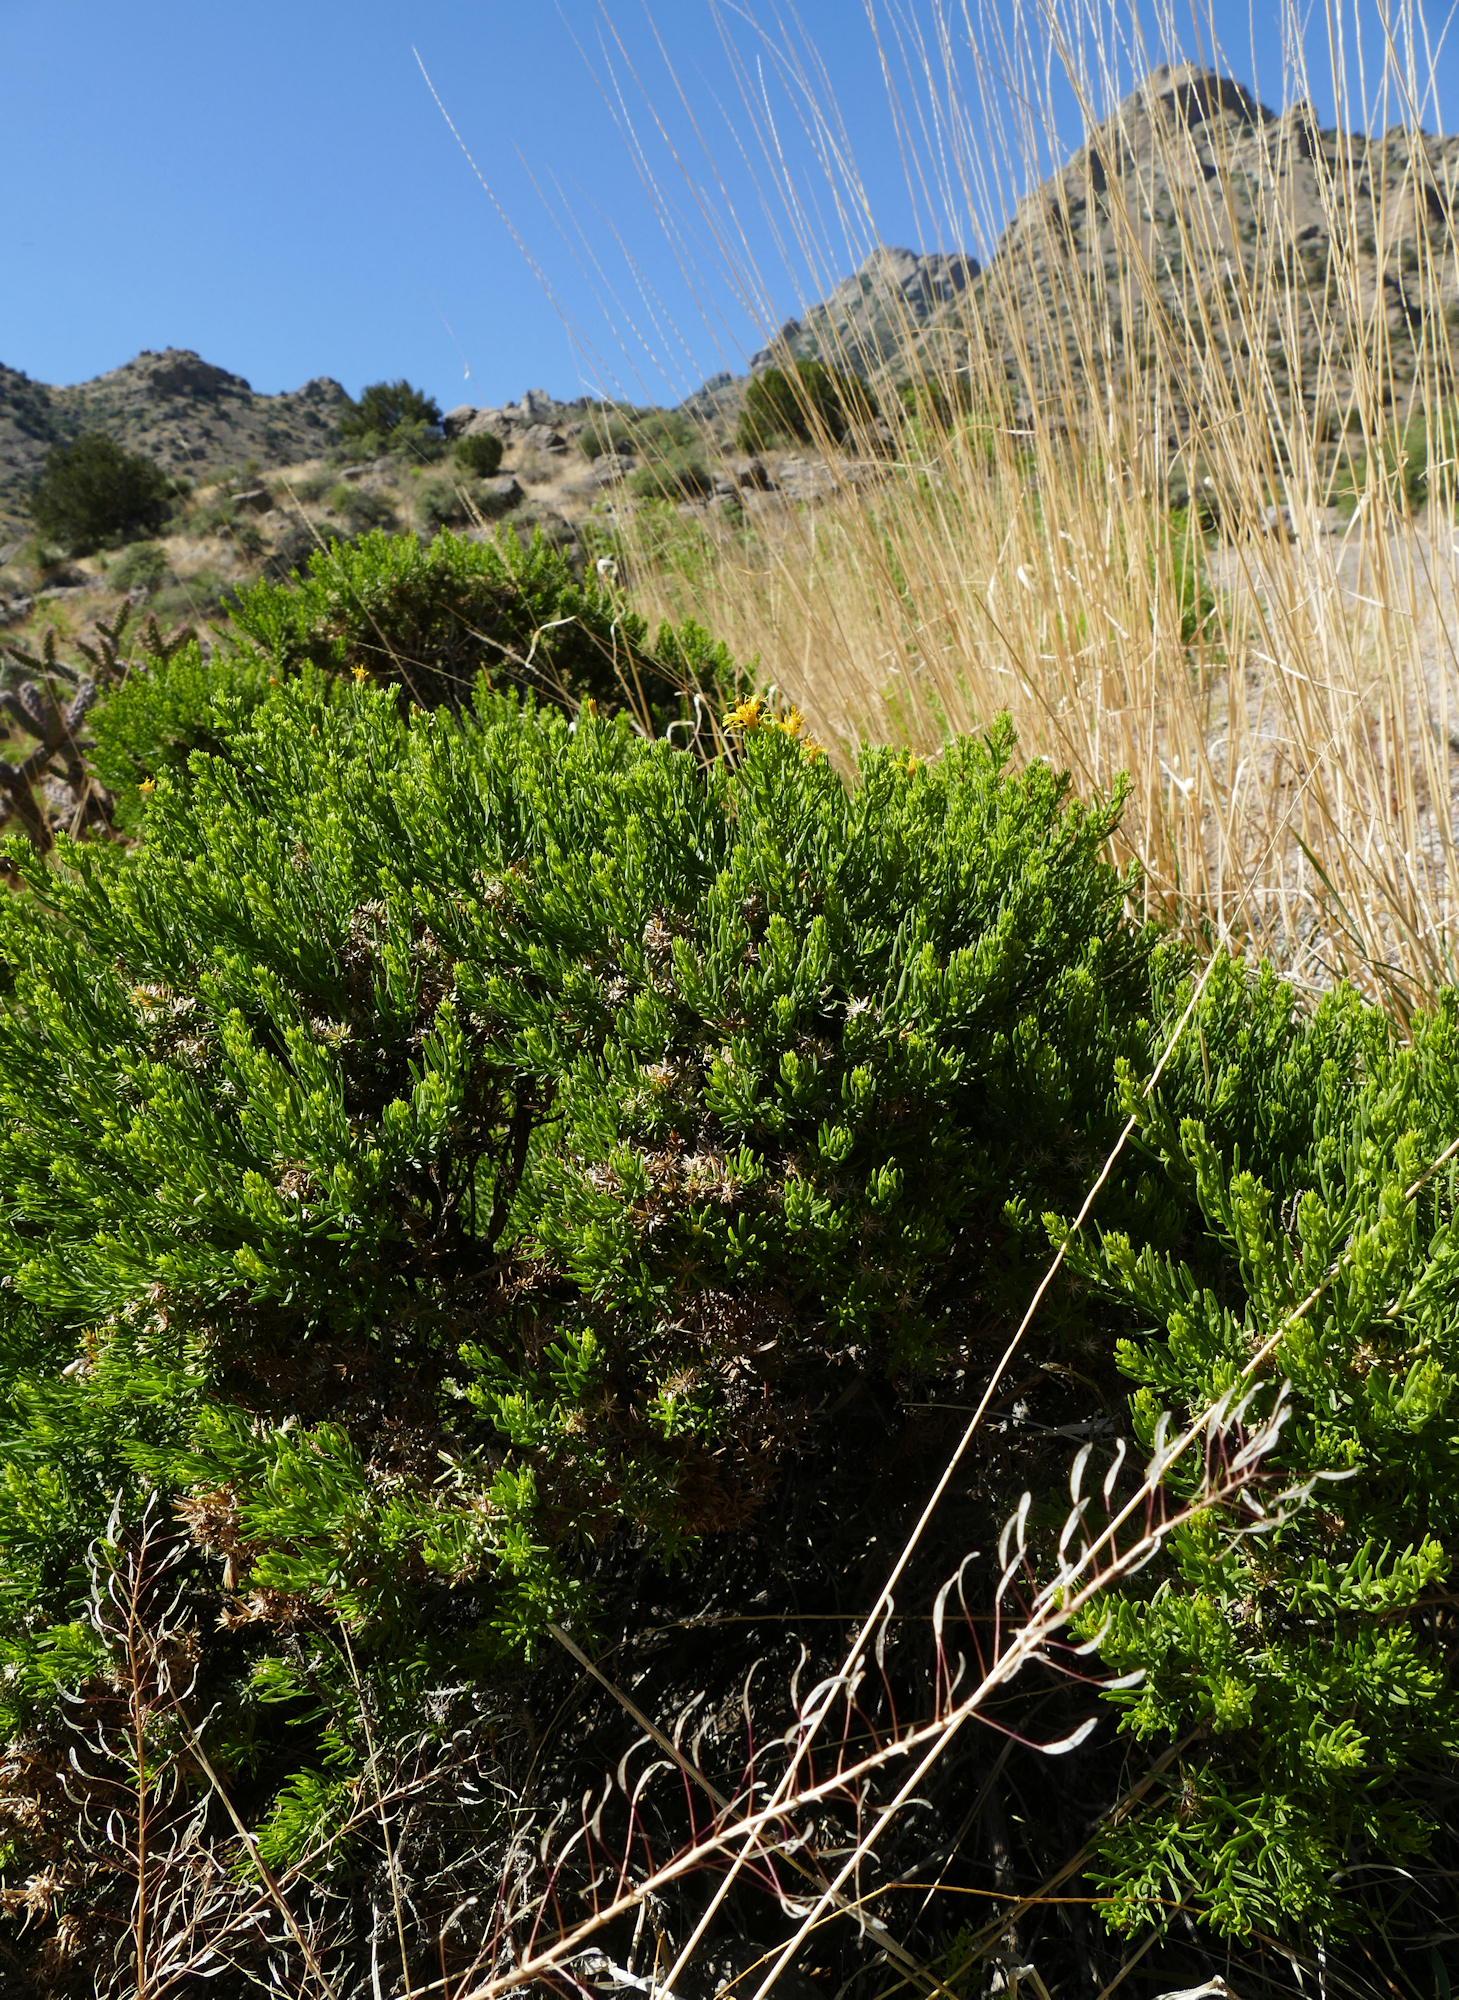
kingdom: Plantae
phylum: Tracheophyta
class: Magnoliopsida
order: Asterales
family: Asteraceae
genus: Ericameria
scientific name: Ericameria laricifolia
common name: Turpentine-bush
